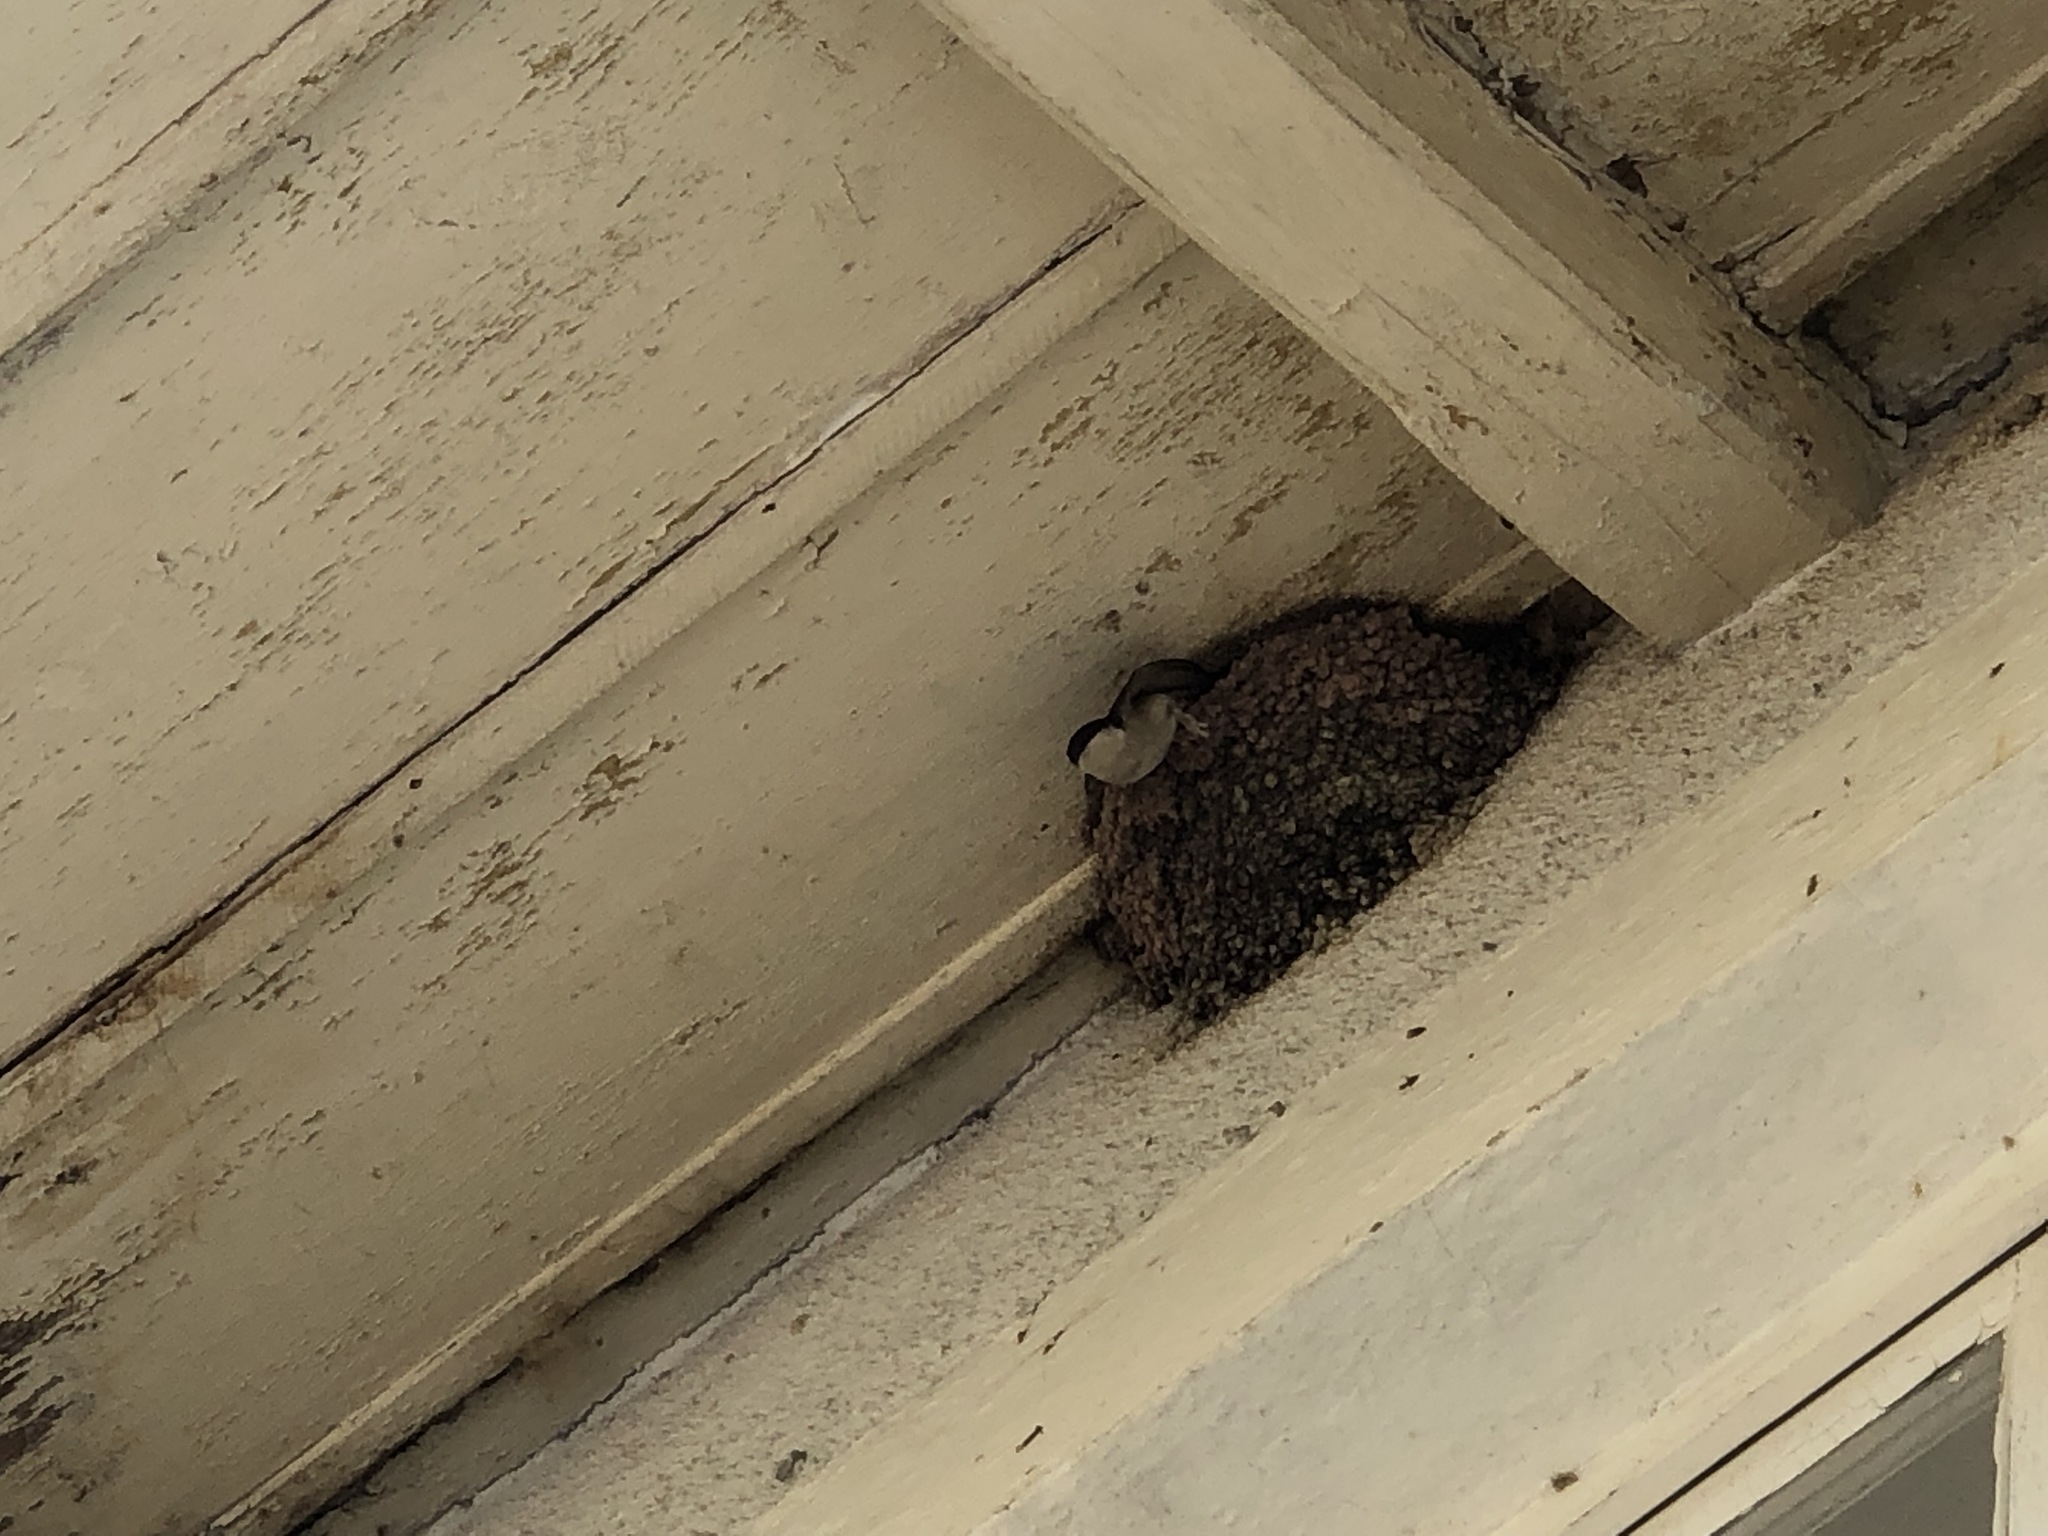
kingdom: Animalia
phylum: Chordata
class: Aves
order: Passeriformes
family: Hirundinidae
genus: Delichon
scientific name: Delichon urbicum
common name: Common house martin
